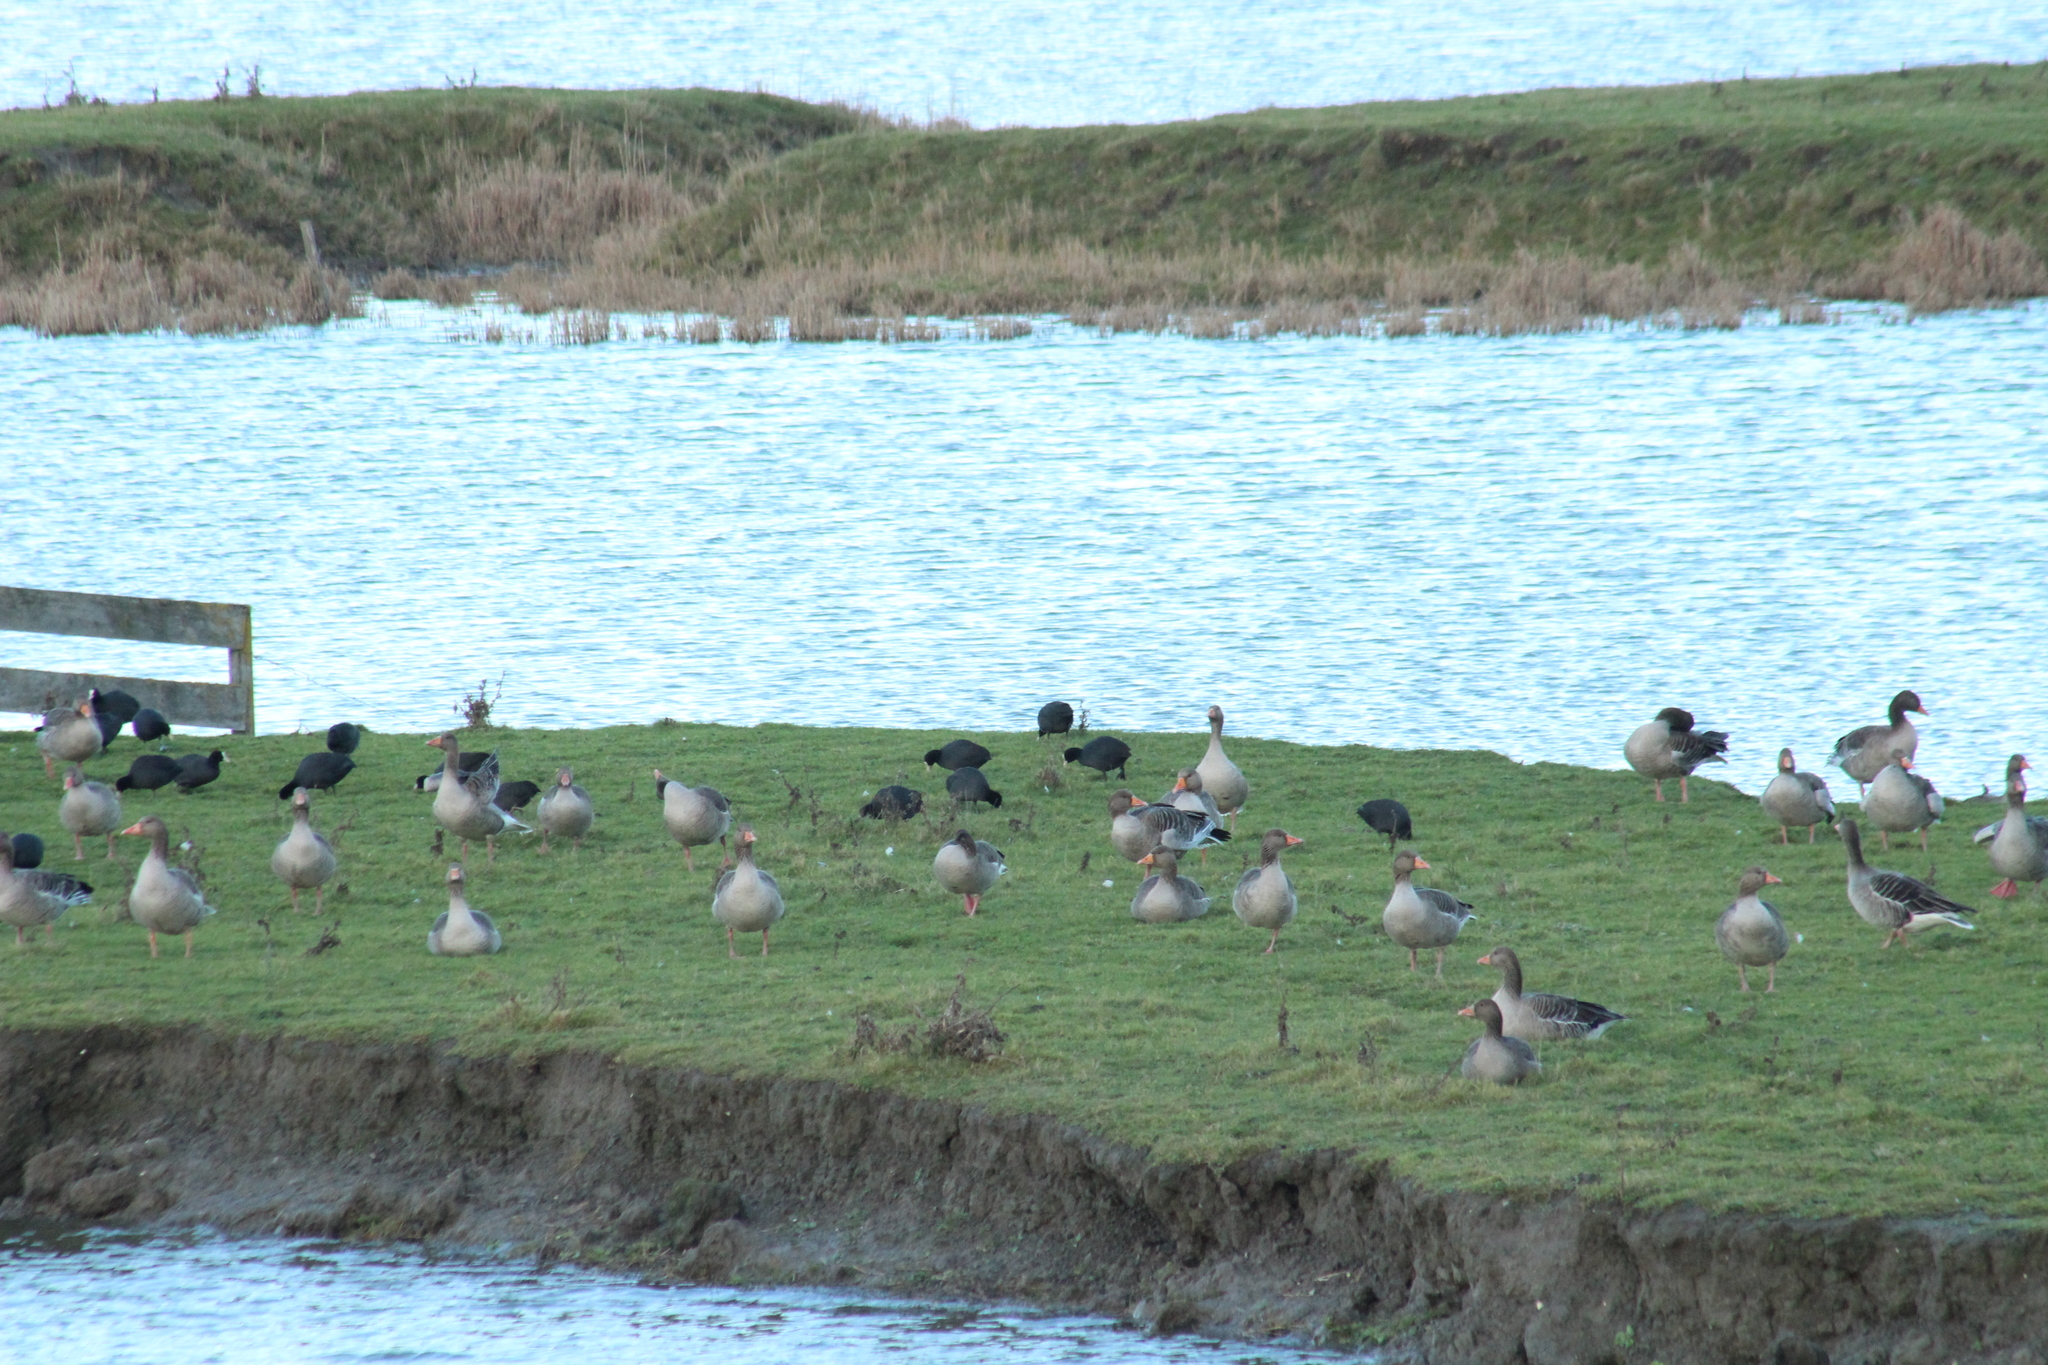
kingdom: Animalia
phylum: Chordata
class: Aves
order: Gruiformes
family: Rallidae
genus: Fulica
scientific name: Fulica atra
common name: Eurasian coot
